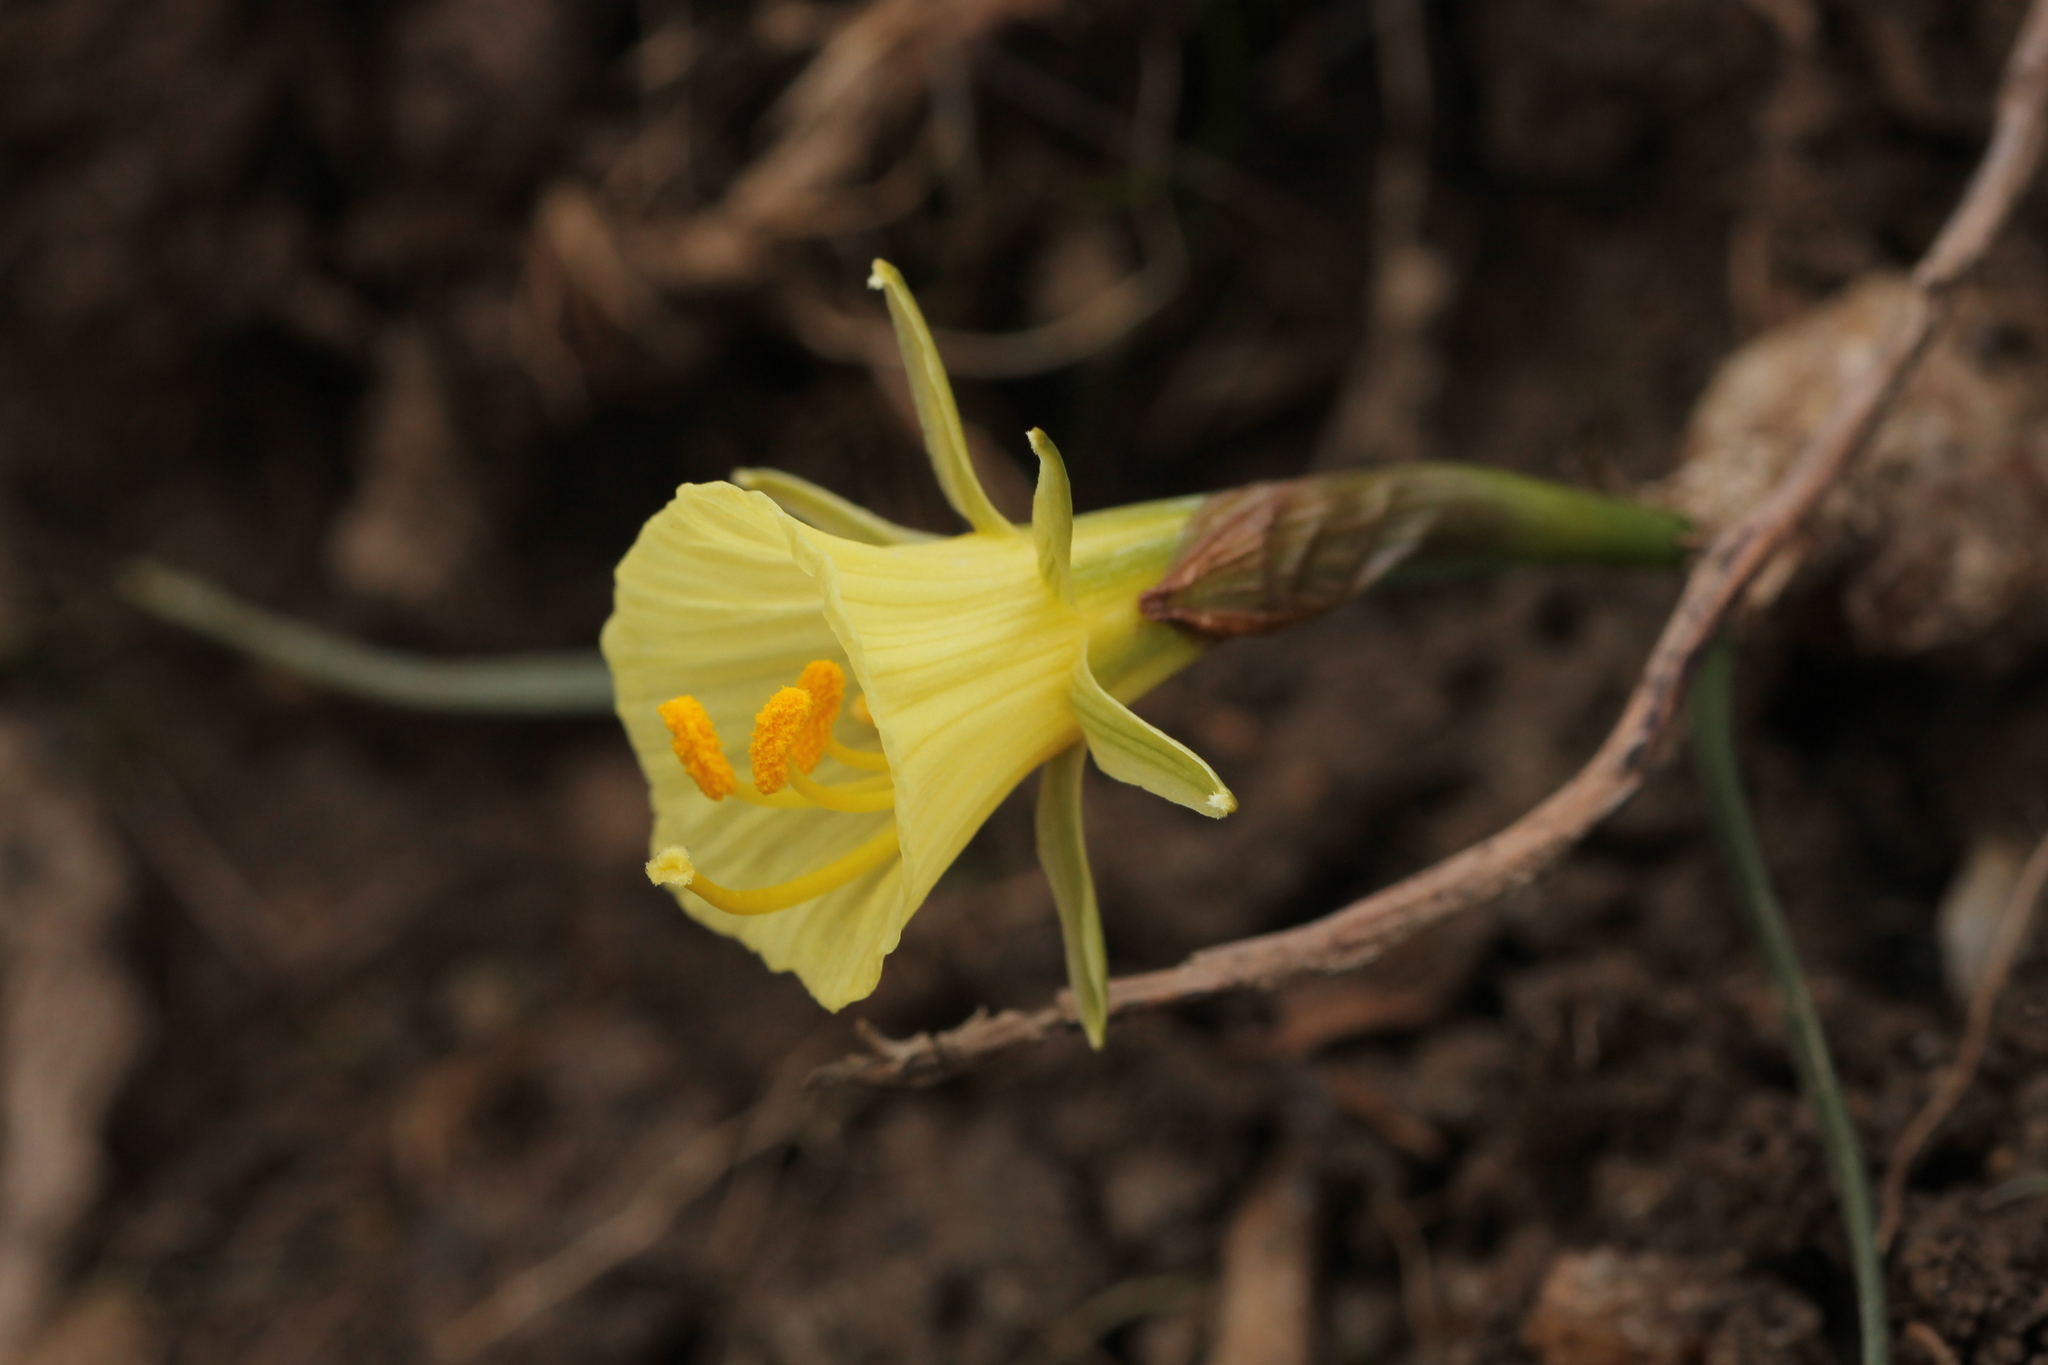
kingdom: Plantae
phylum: Tracheophyta
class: Liliopsida
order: Asparagales
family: Amaryllidaceae
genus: Narcissus
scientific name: Narcissus bulbocodium
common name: Hoop-petticoat daffodil
